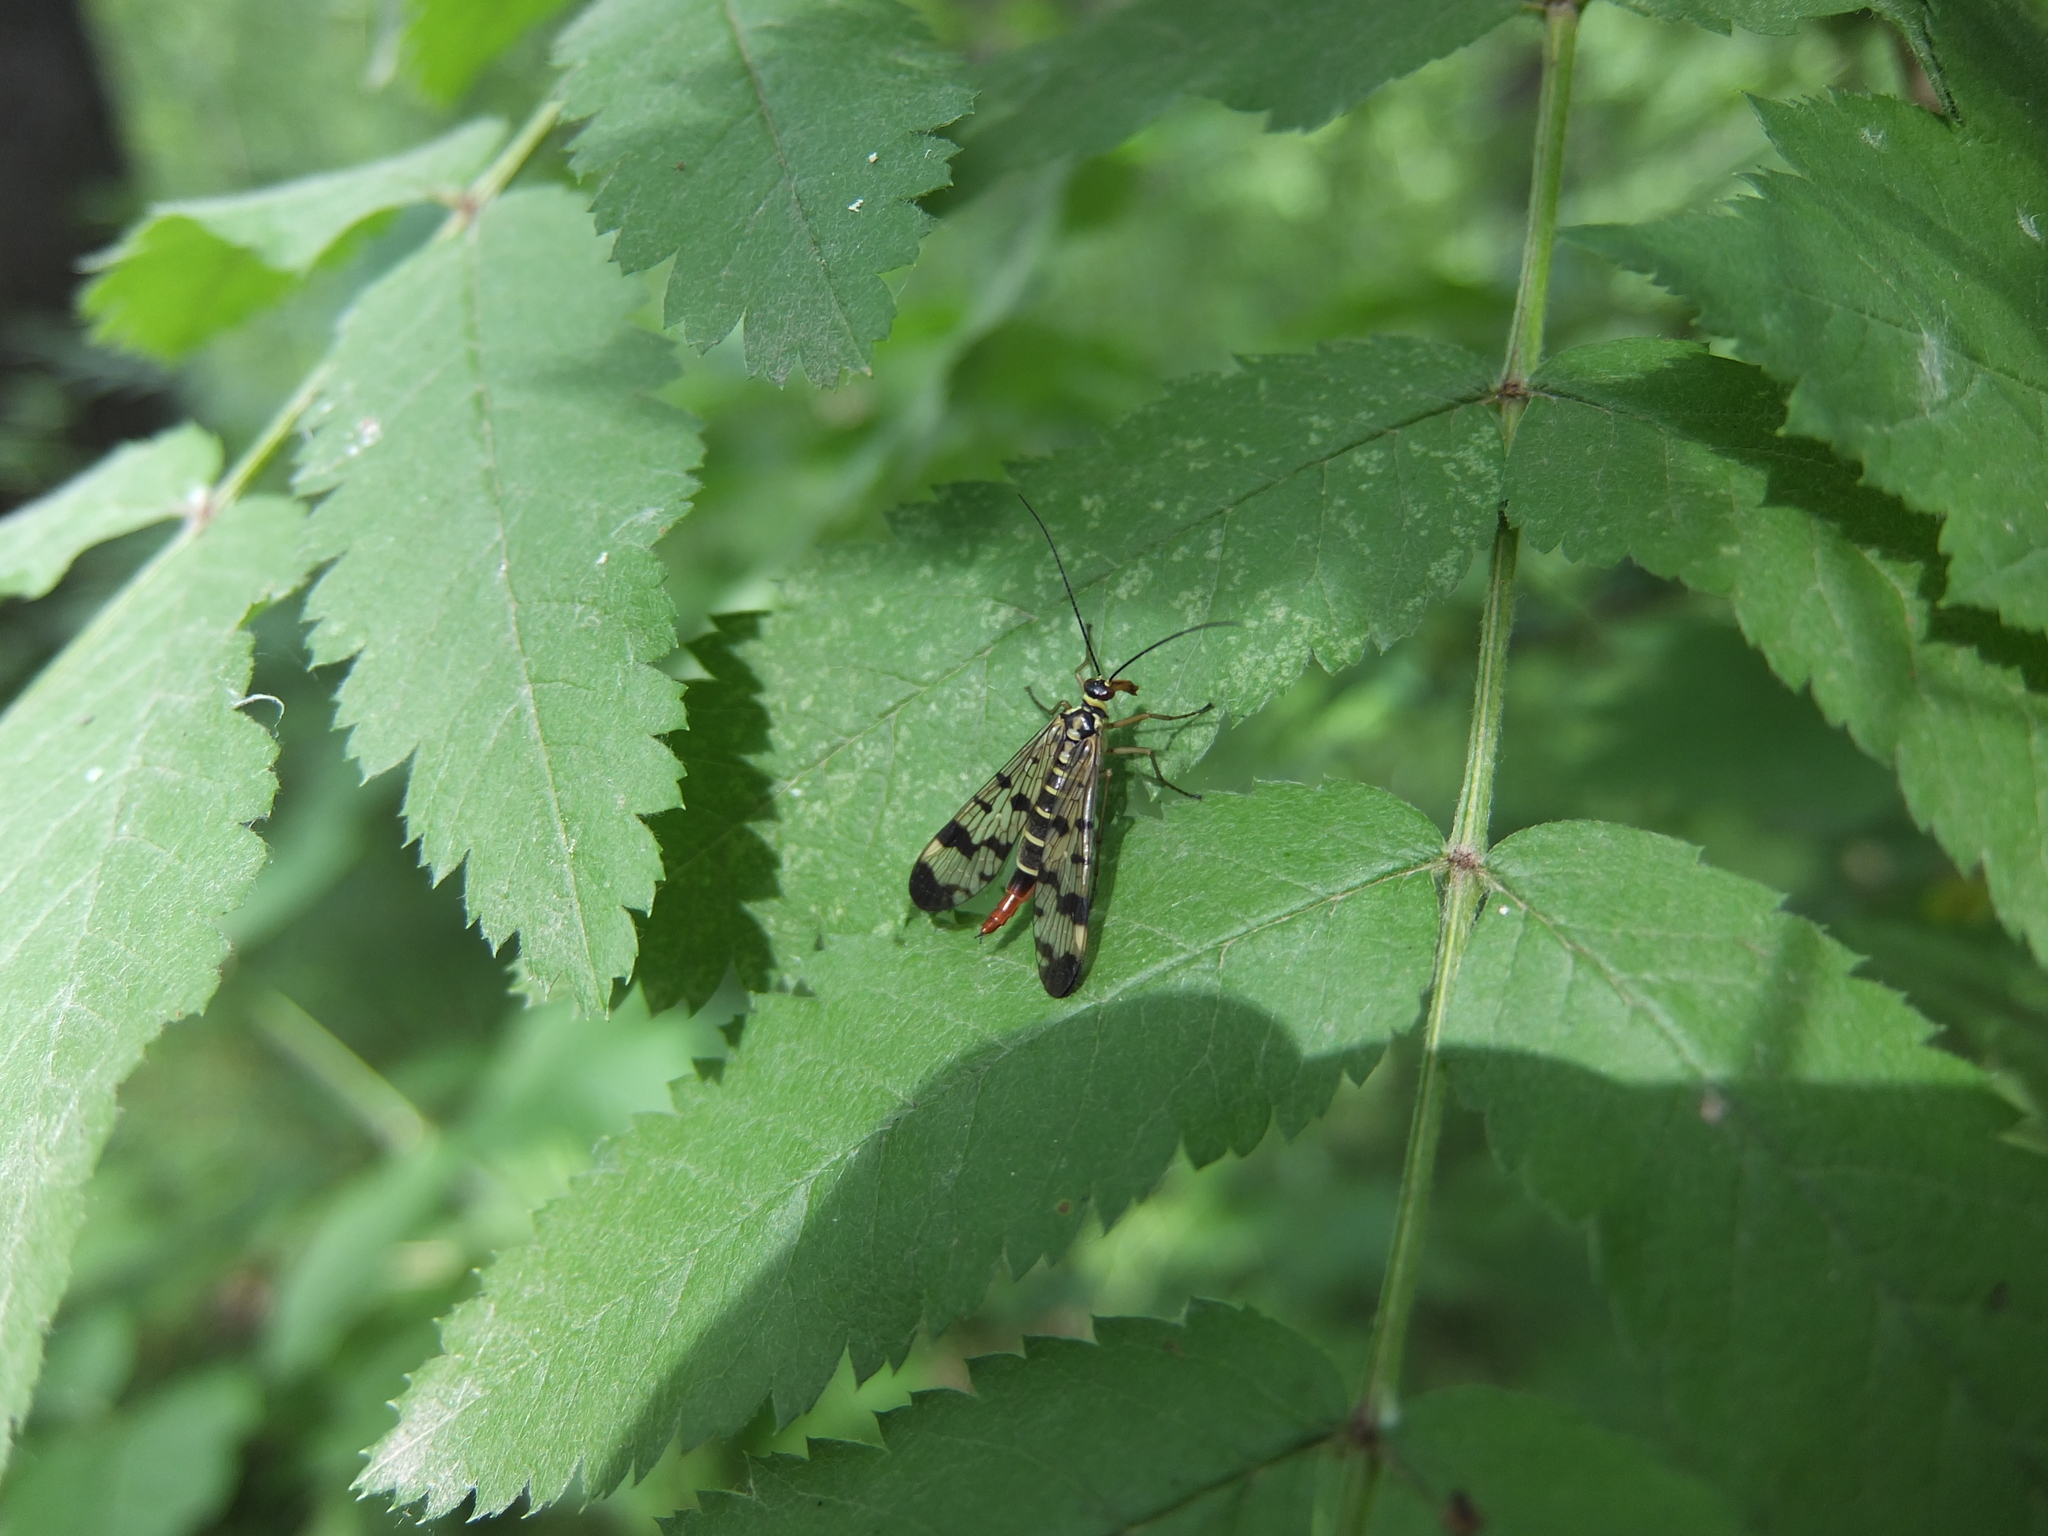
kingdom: Animalia
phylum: Arthropoda
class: Insecta
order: Mecoptera
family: Panorpidae
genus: Panorpa
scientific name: Panorpa communis
